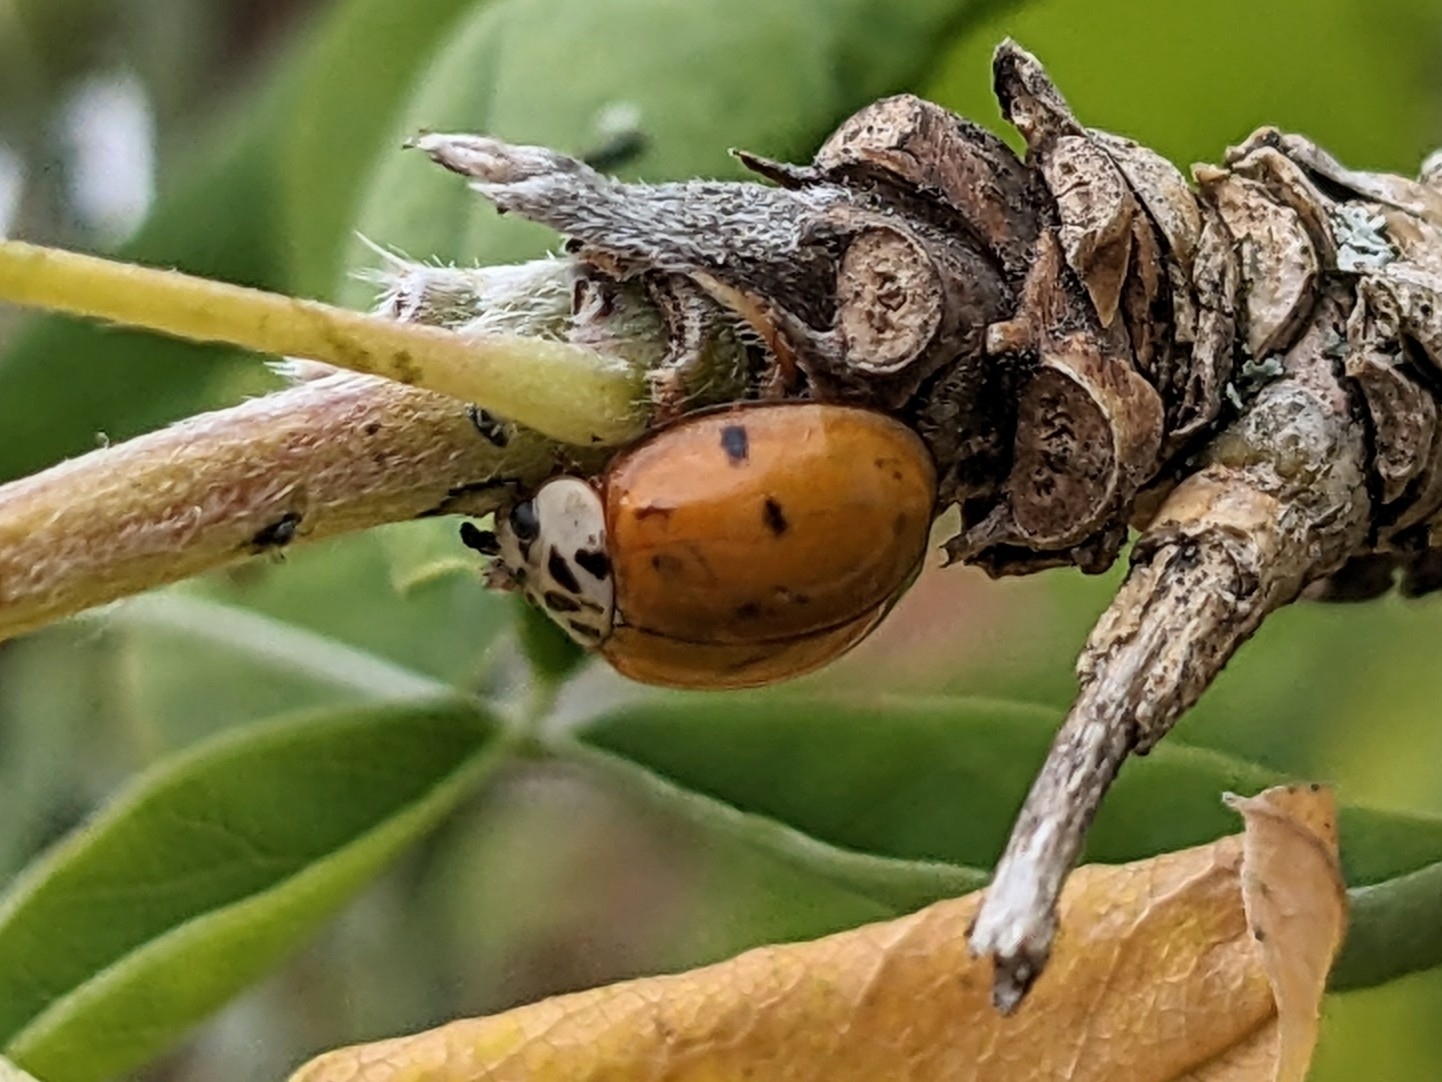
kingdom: Animalia
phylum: Arthropoda
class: Insecta
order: Coleoptera
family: Coccinellidae
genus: Harmonia
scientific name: Harmonia axyridis
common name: Harlequin ladybird
